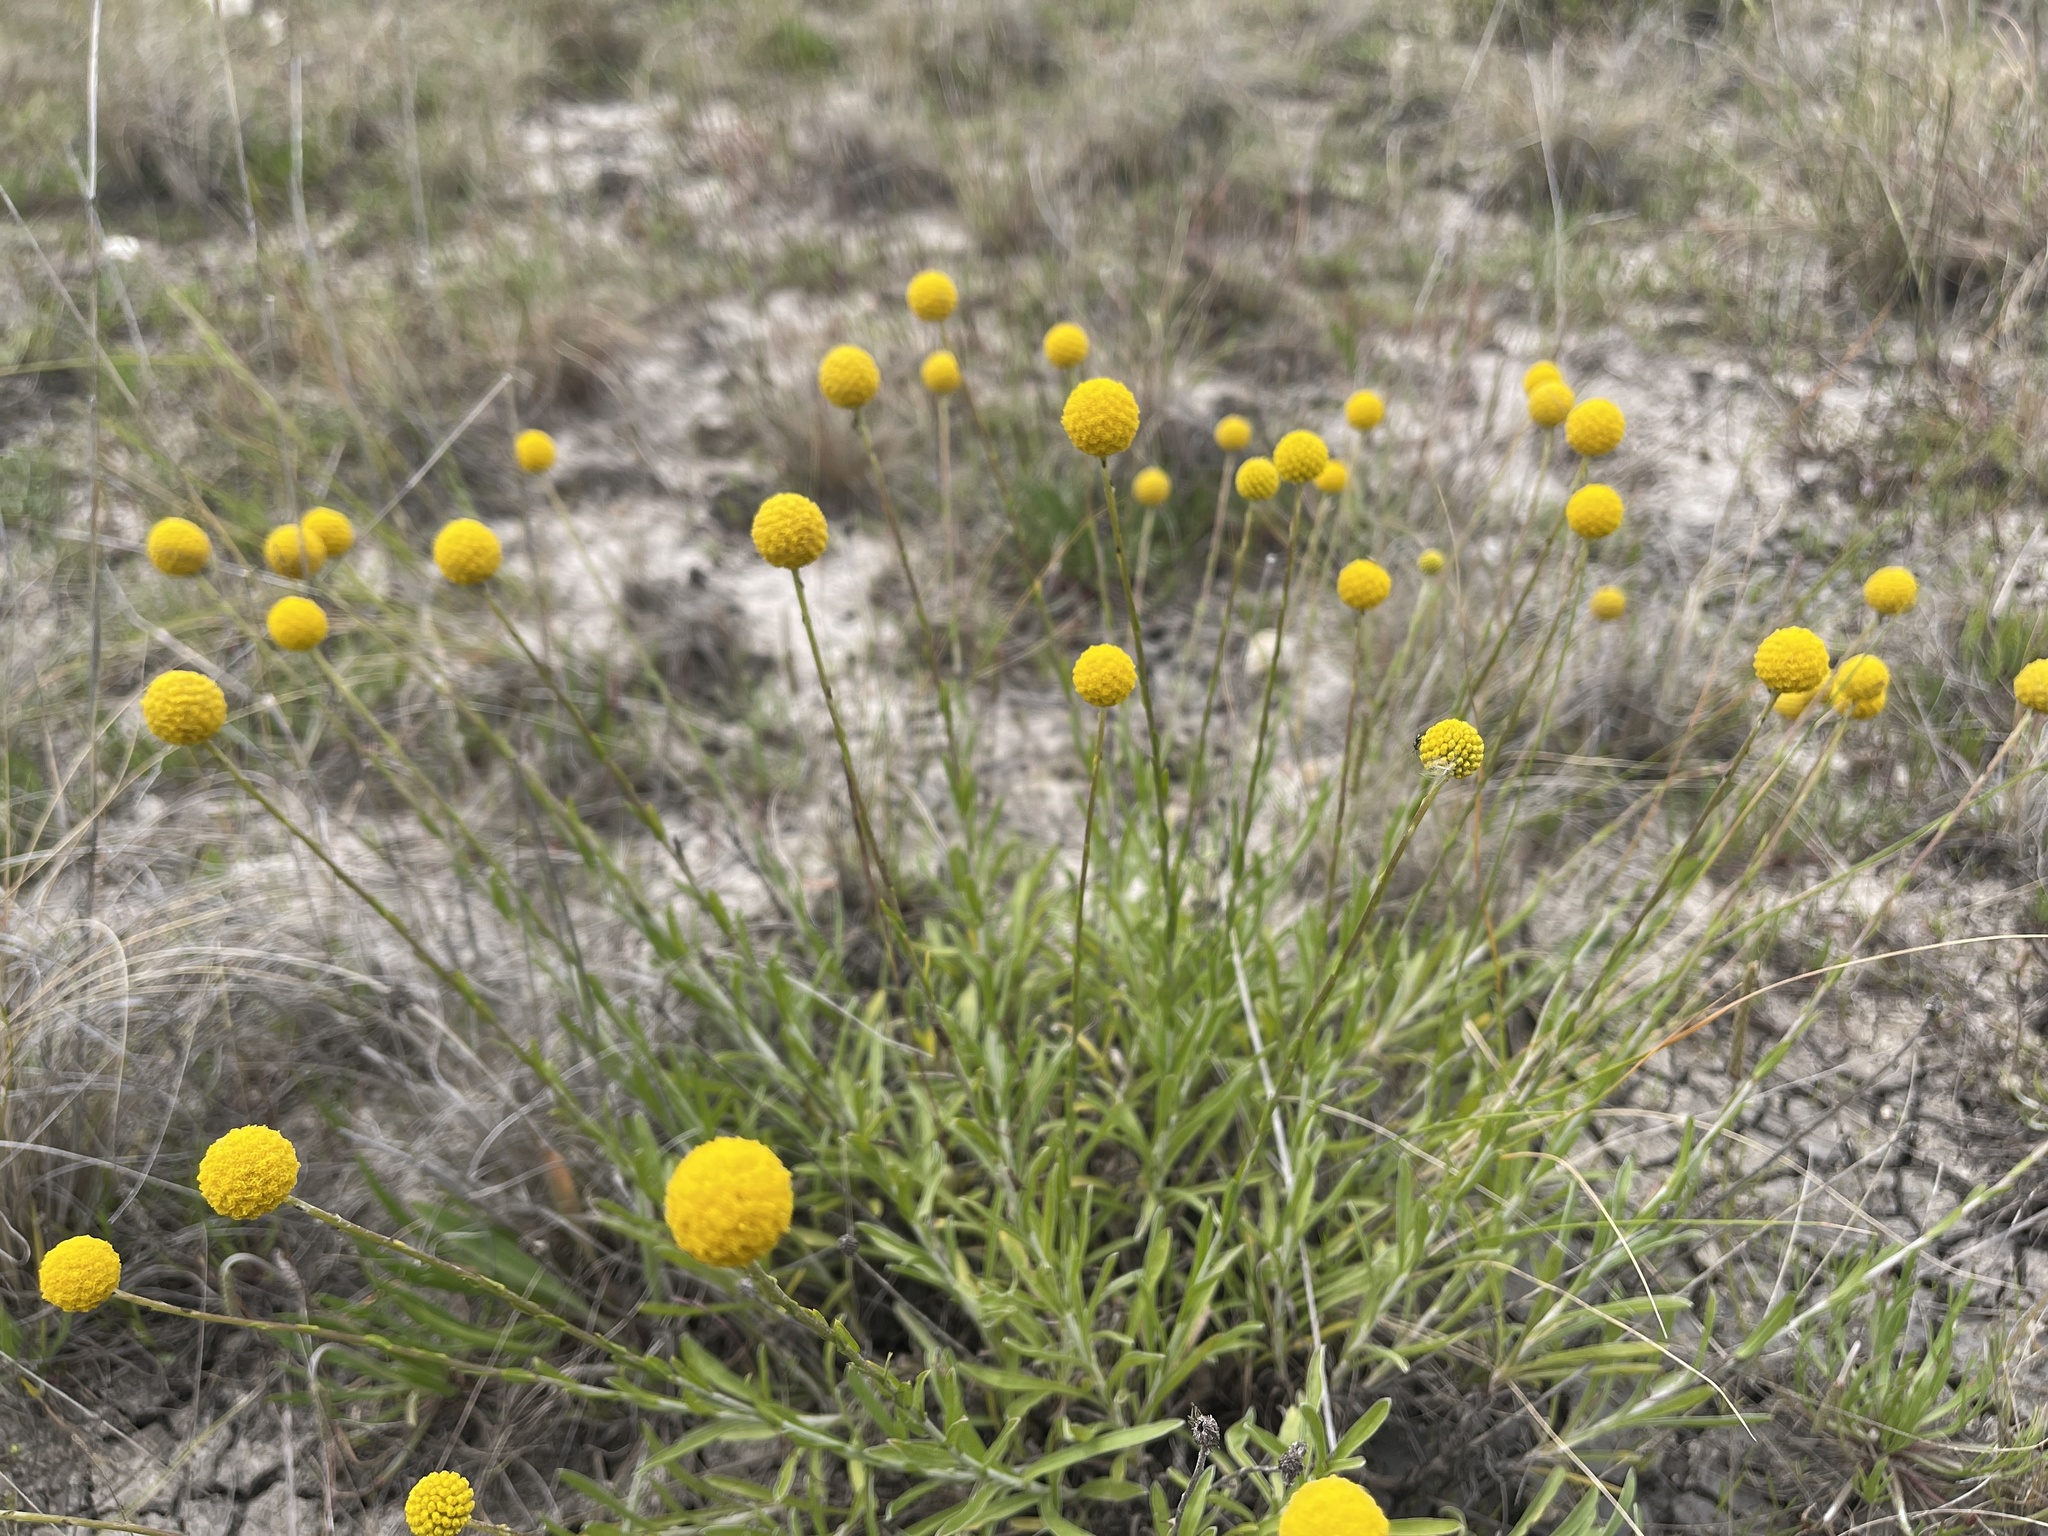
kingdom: Plantae
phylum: Tracheophyta
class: Magnoliopsida
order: Asterales
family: Asteraceae
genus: Pycnosorus
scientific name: Pycnosorus chrysanthus
